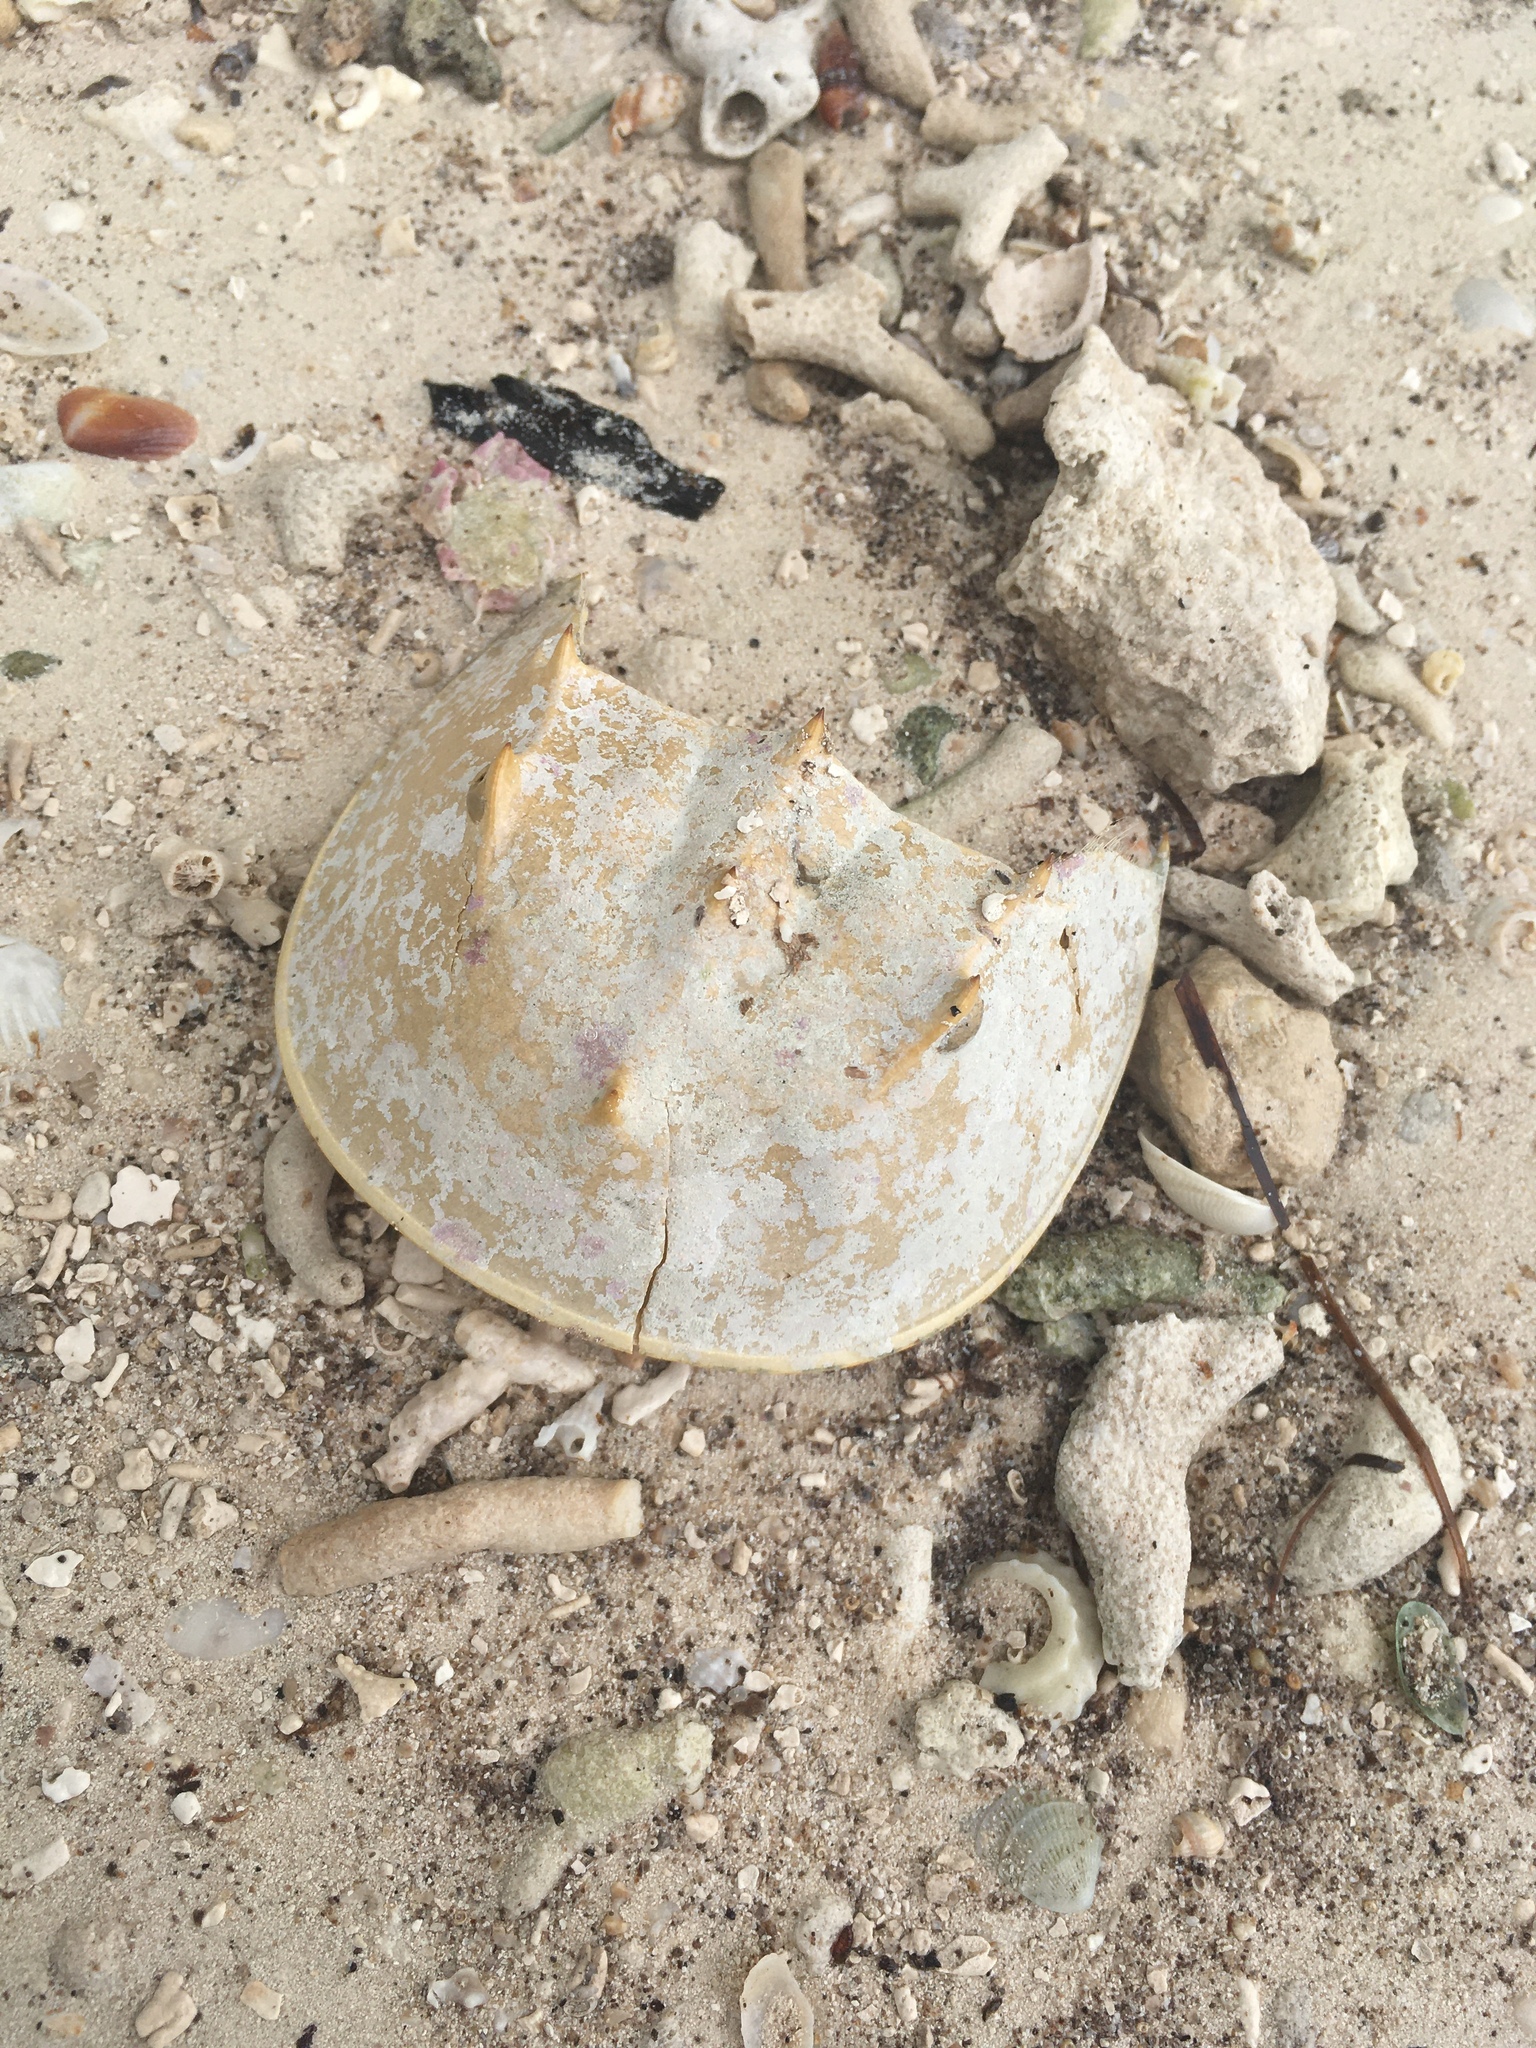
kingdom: Animalia
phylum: Arthropoda
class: Merostomata
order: Xiphosurida
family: Limulidae
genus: Limulus
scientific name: Limulus polyphemus
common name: Horseshoe crab
